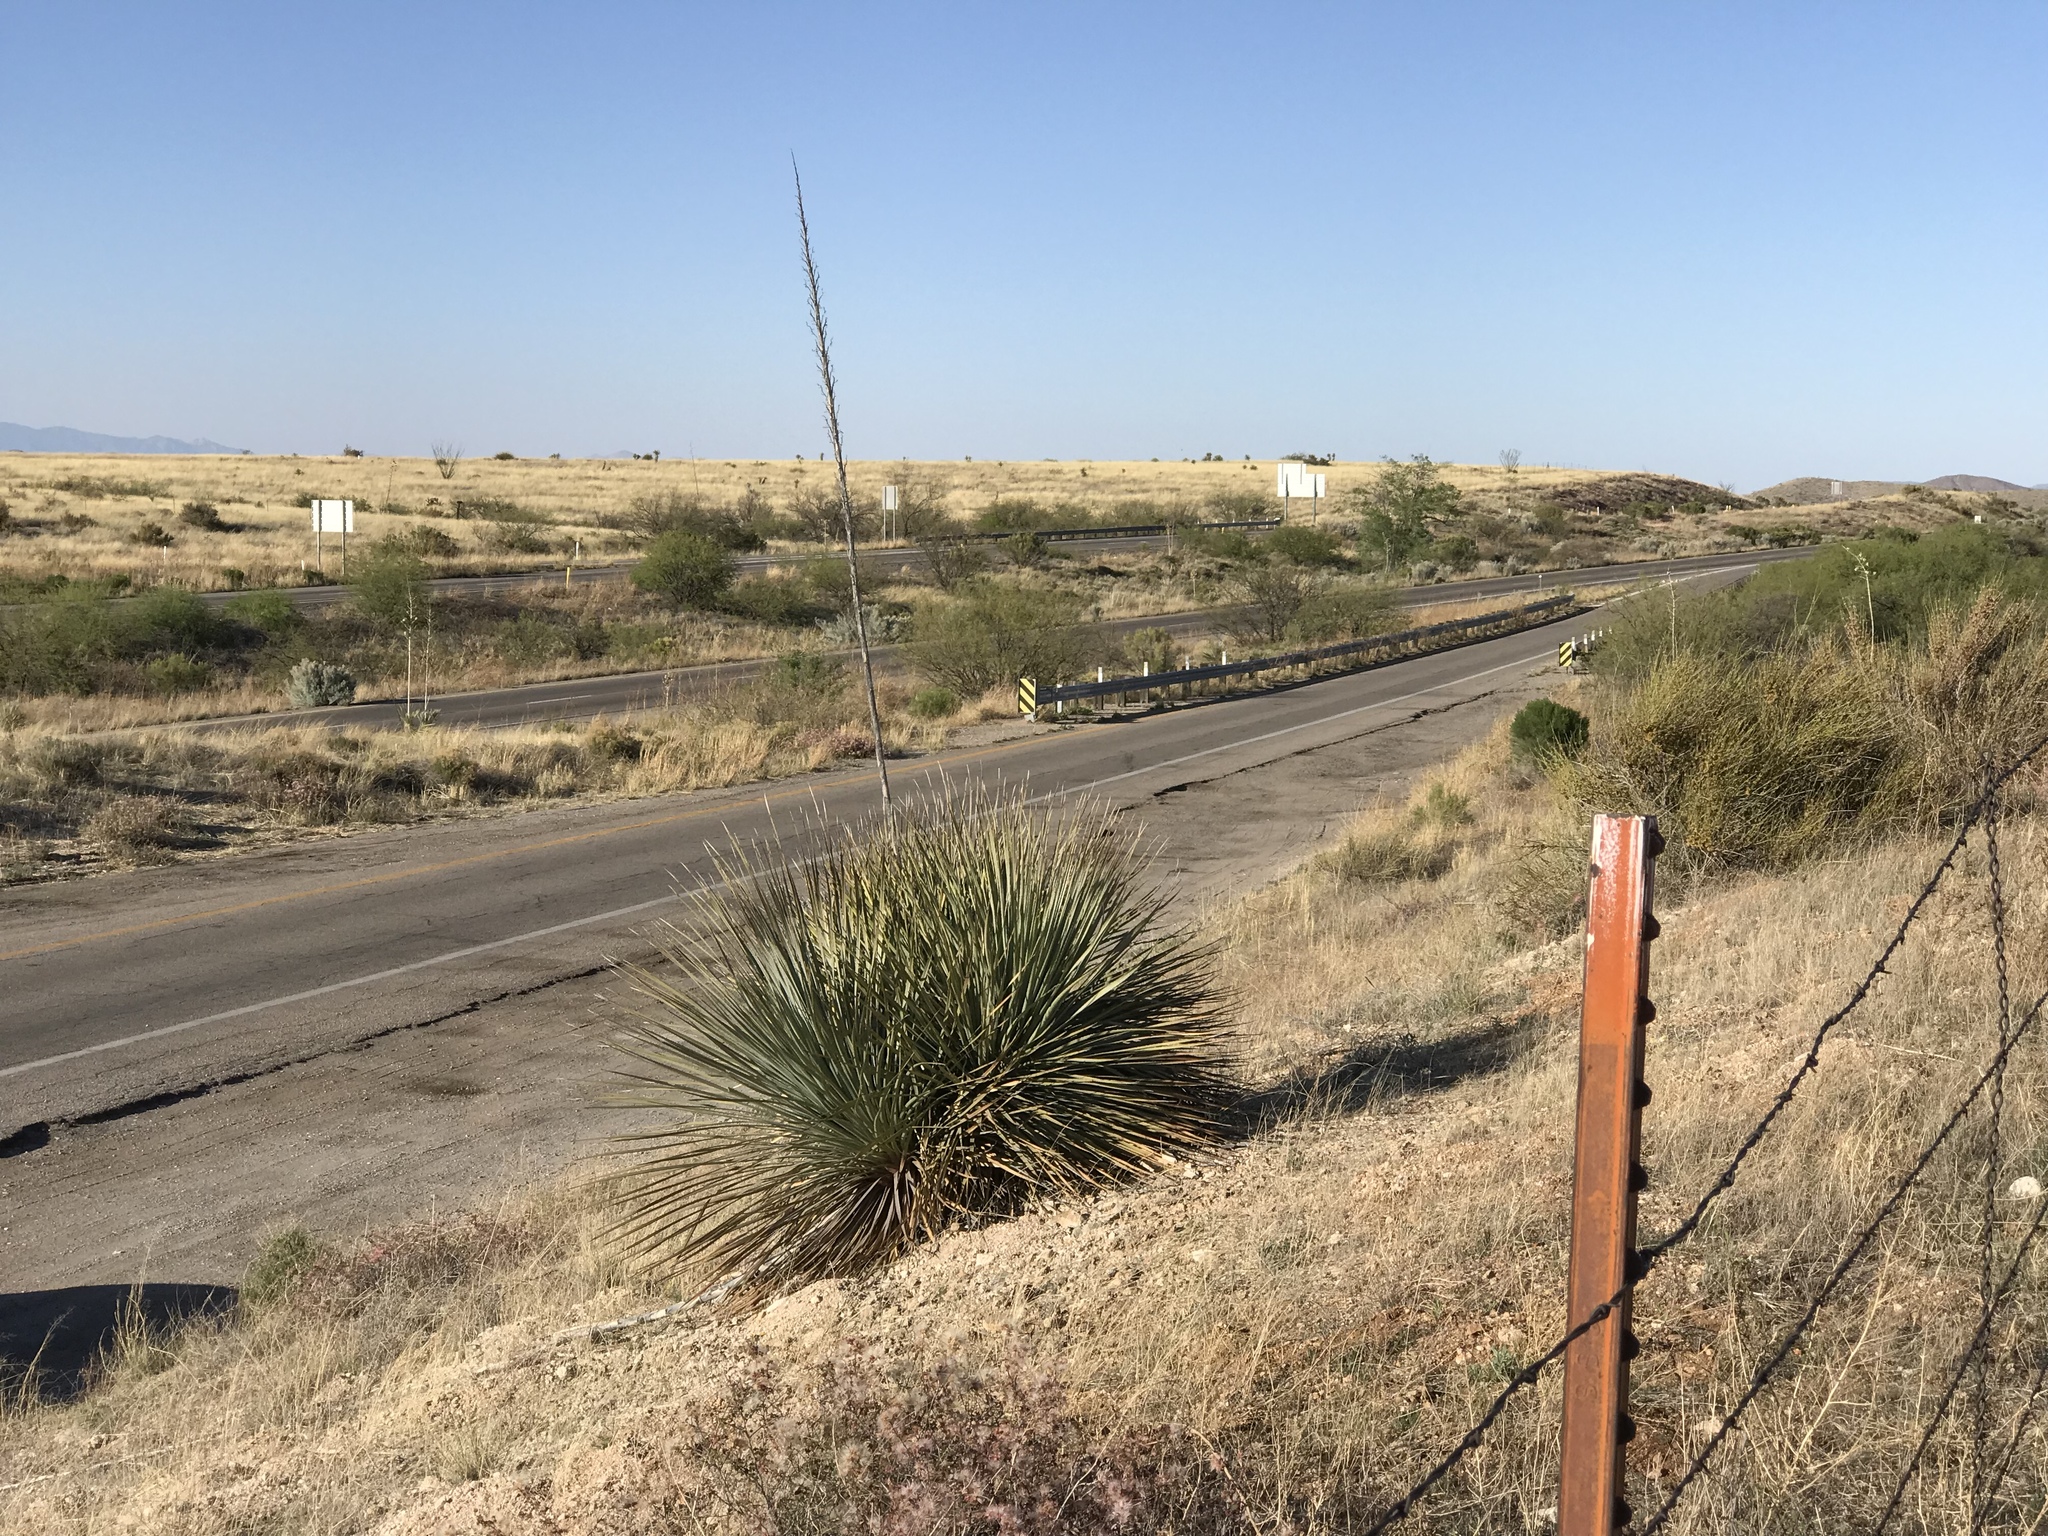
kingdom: Plantae
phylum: Tracheophyta
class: Liliopsida
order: Asparagales
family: Asparagaceae
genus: Dasylirion
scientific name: Dasylirion wheeleri
